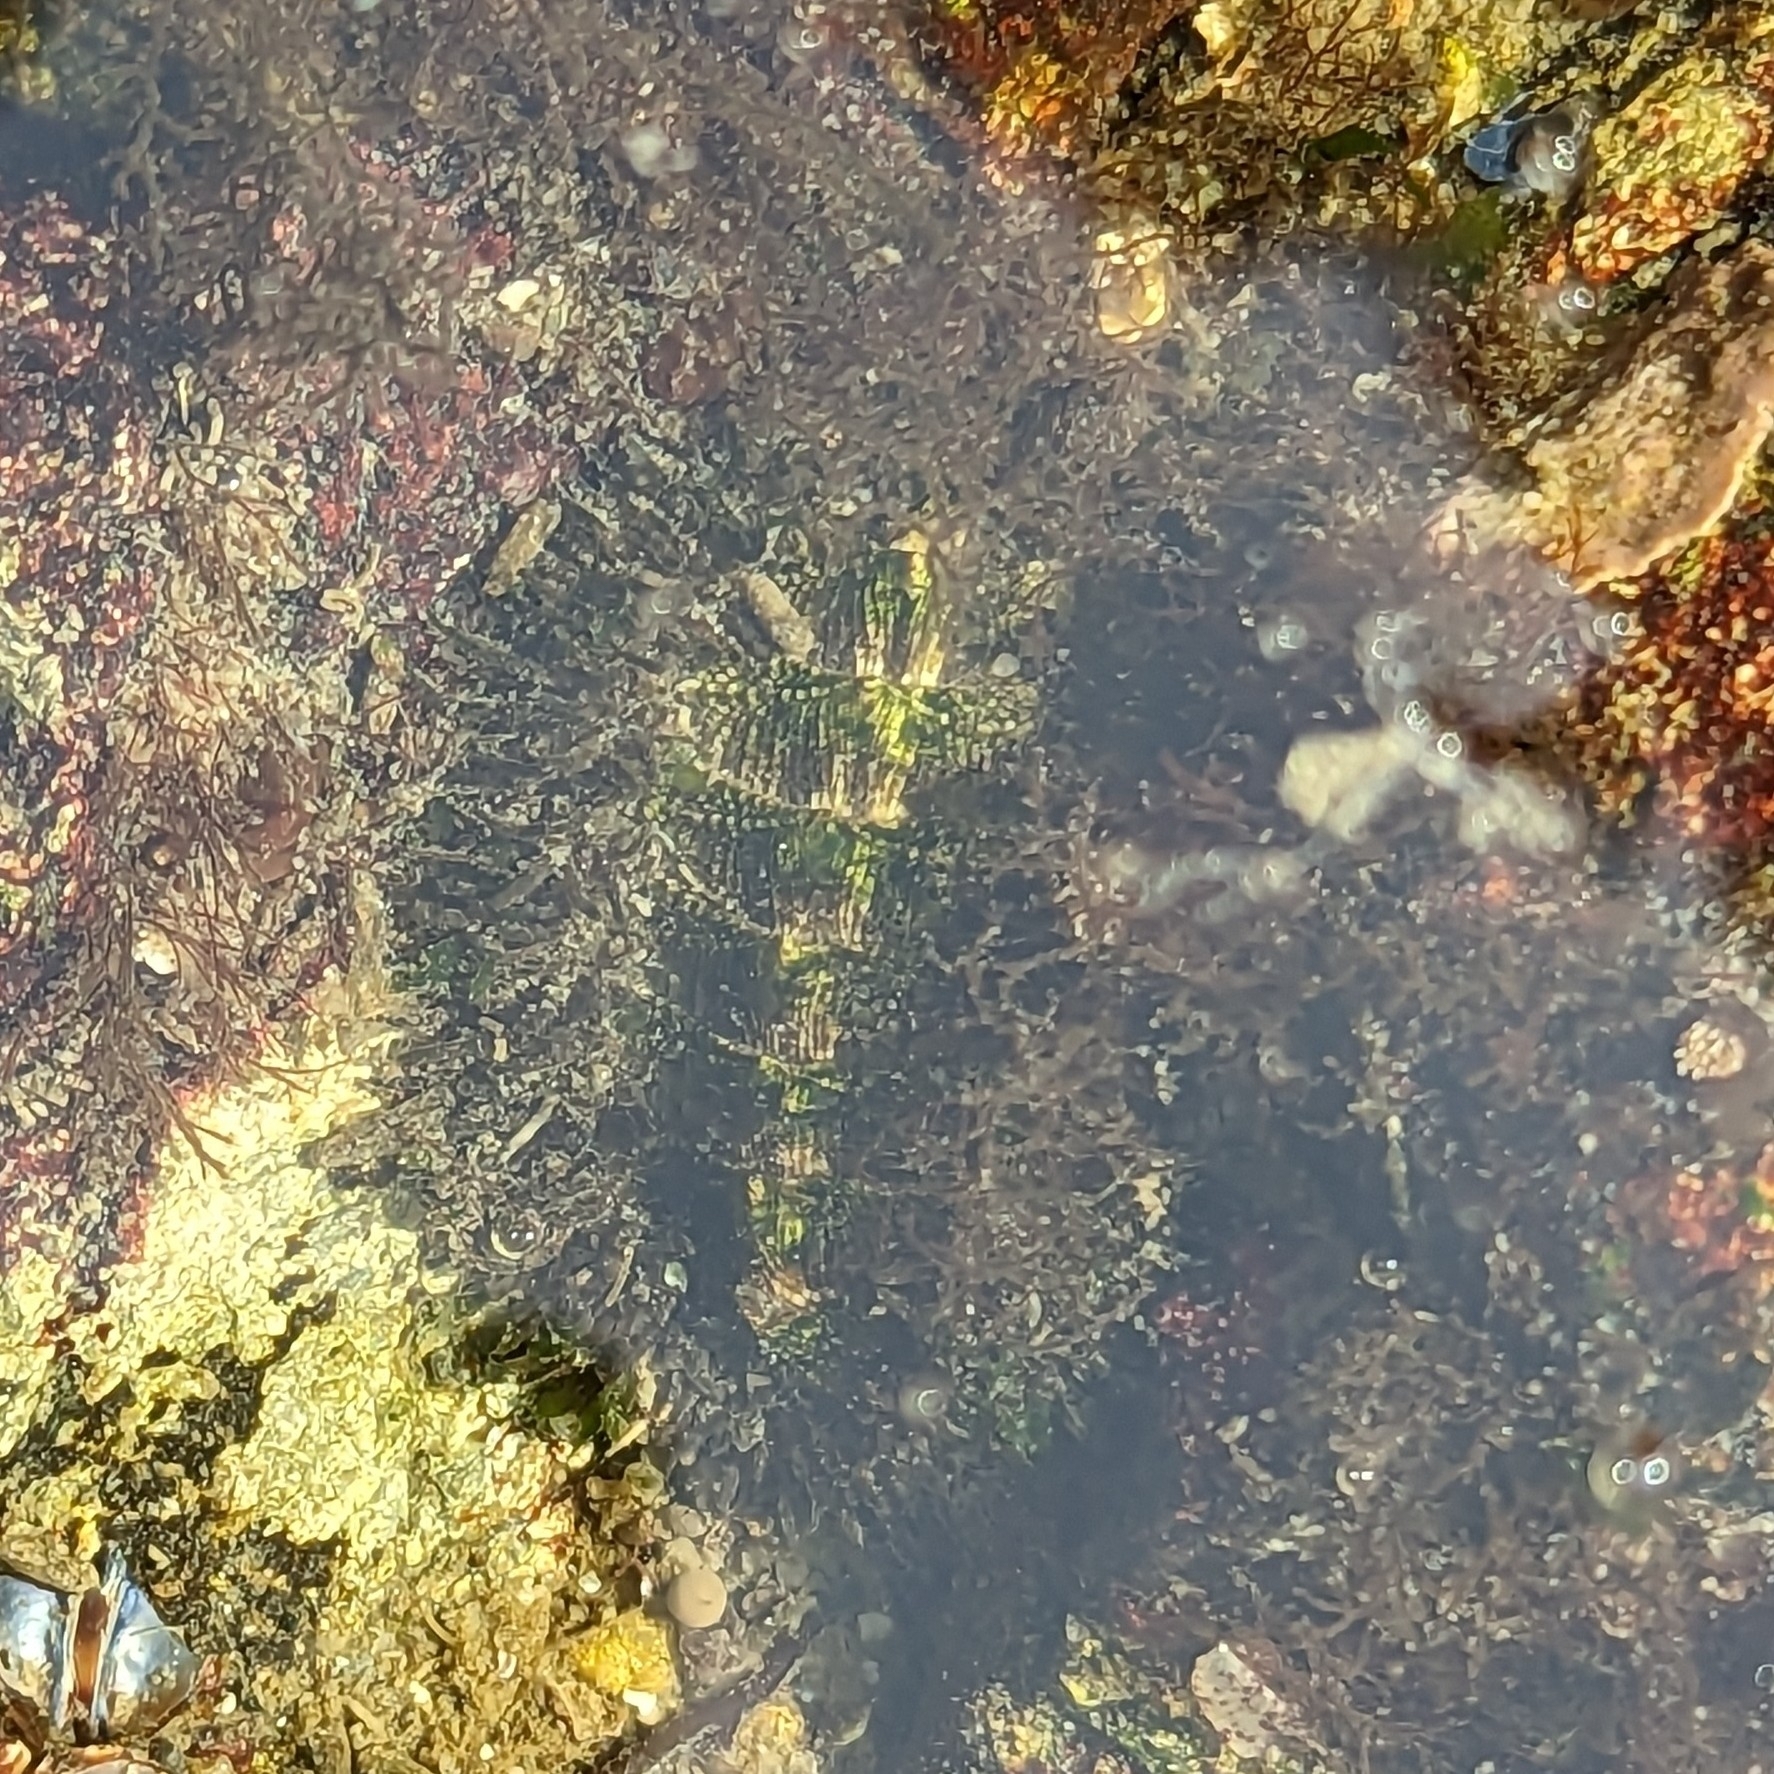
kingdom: Animalia
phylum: Mollusca
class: Polyplacophora
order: Chitonida
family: Mopaliidae
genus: Mopalia
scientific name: Mopalia muscosa
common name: Mossy chiton
